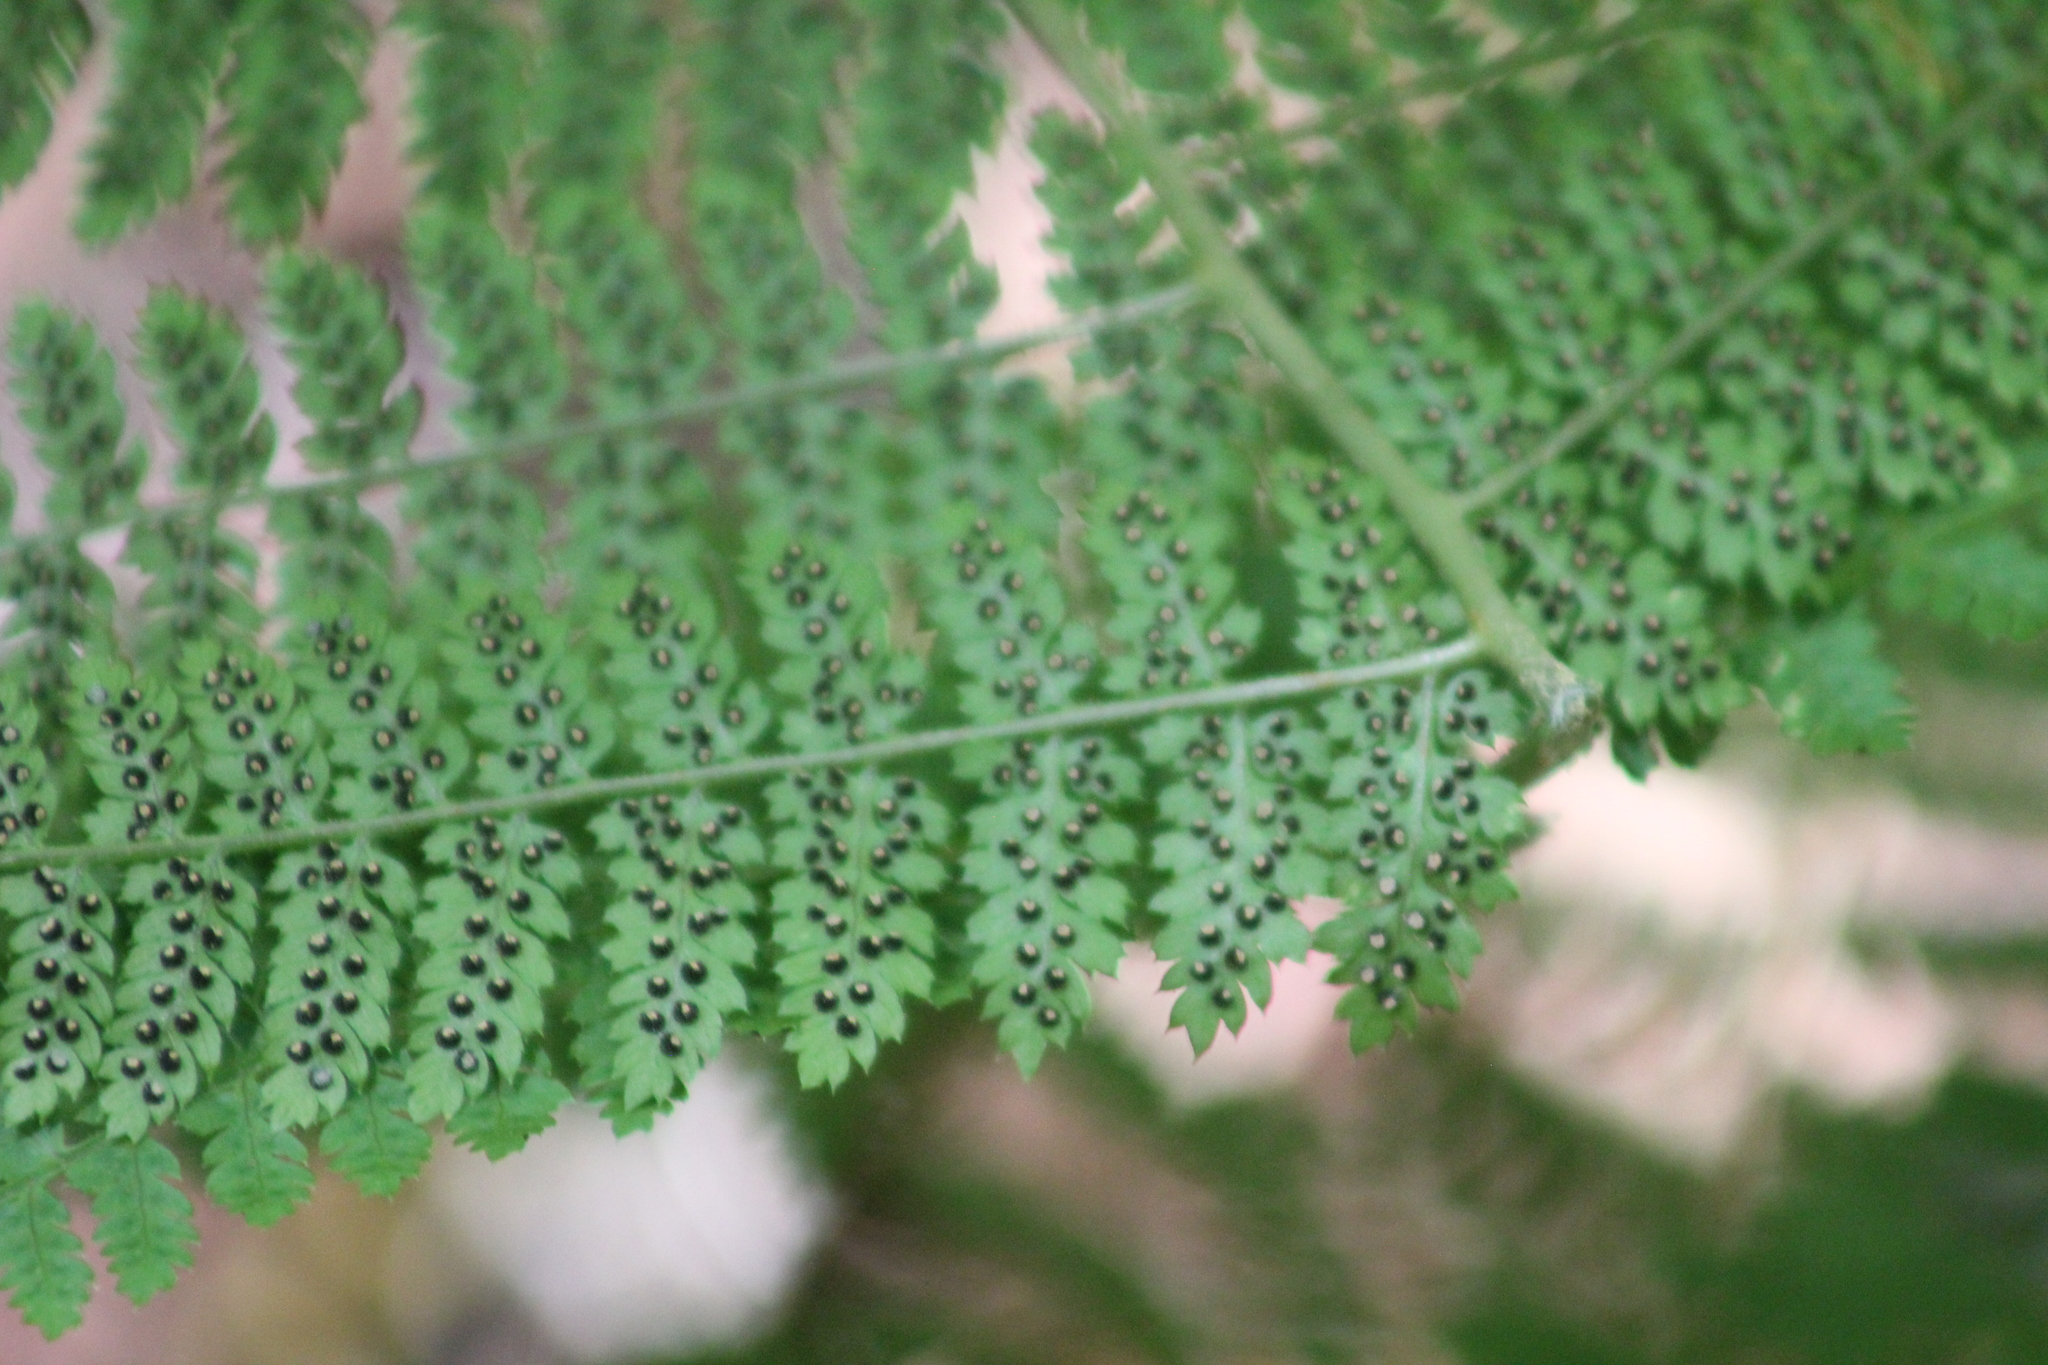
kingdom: Plantae
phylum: Tracheophyta
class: Polypodiopsida
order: Polypodiales
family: Dryopteridaceae
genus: Dryopteris
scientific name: Dryopteris intermedia
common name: Evergreen wood fern
